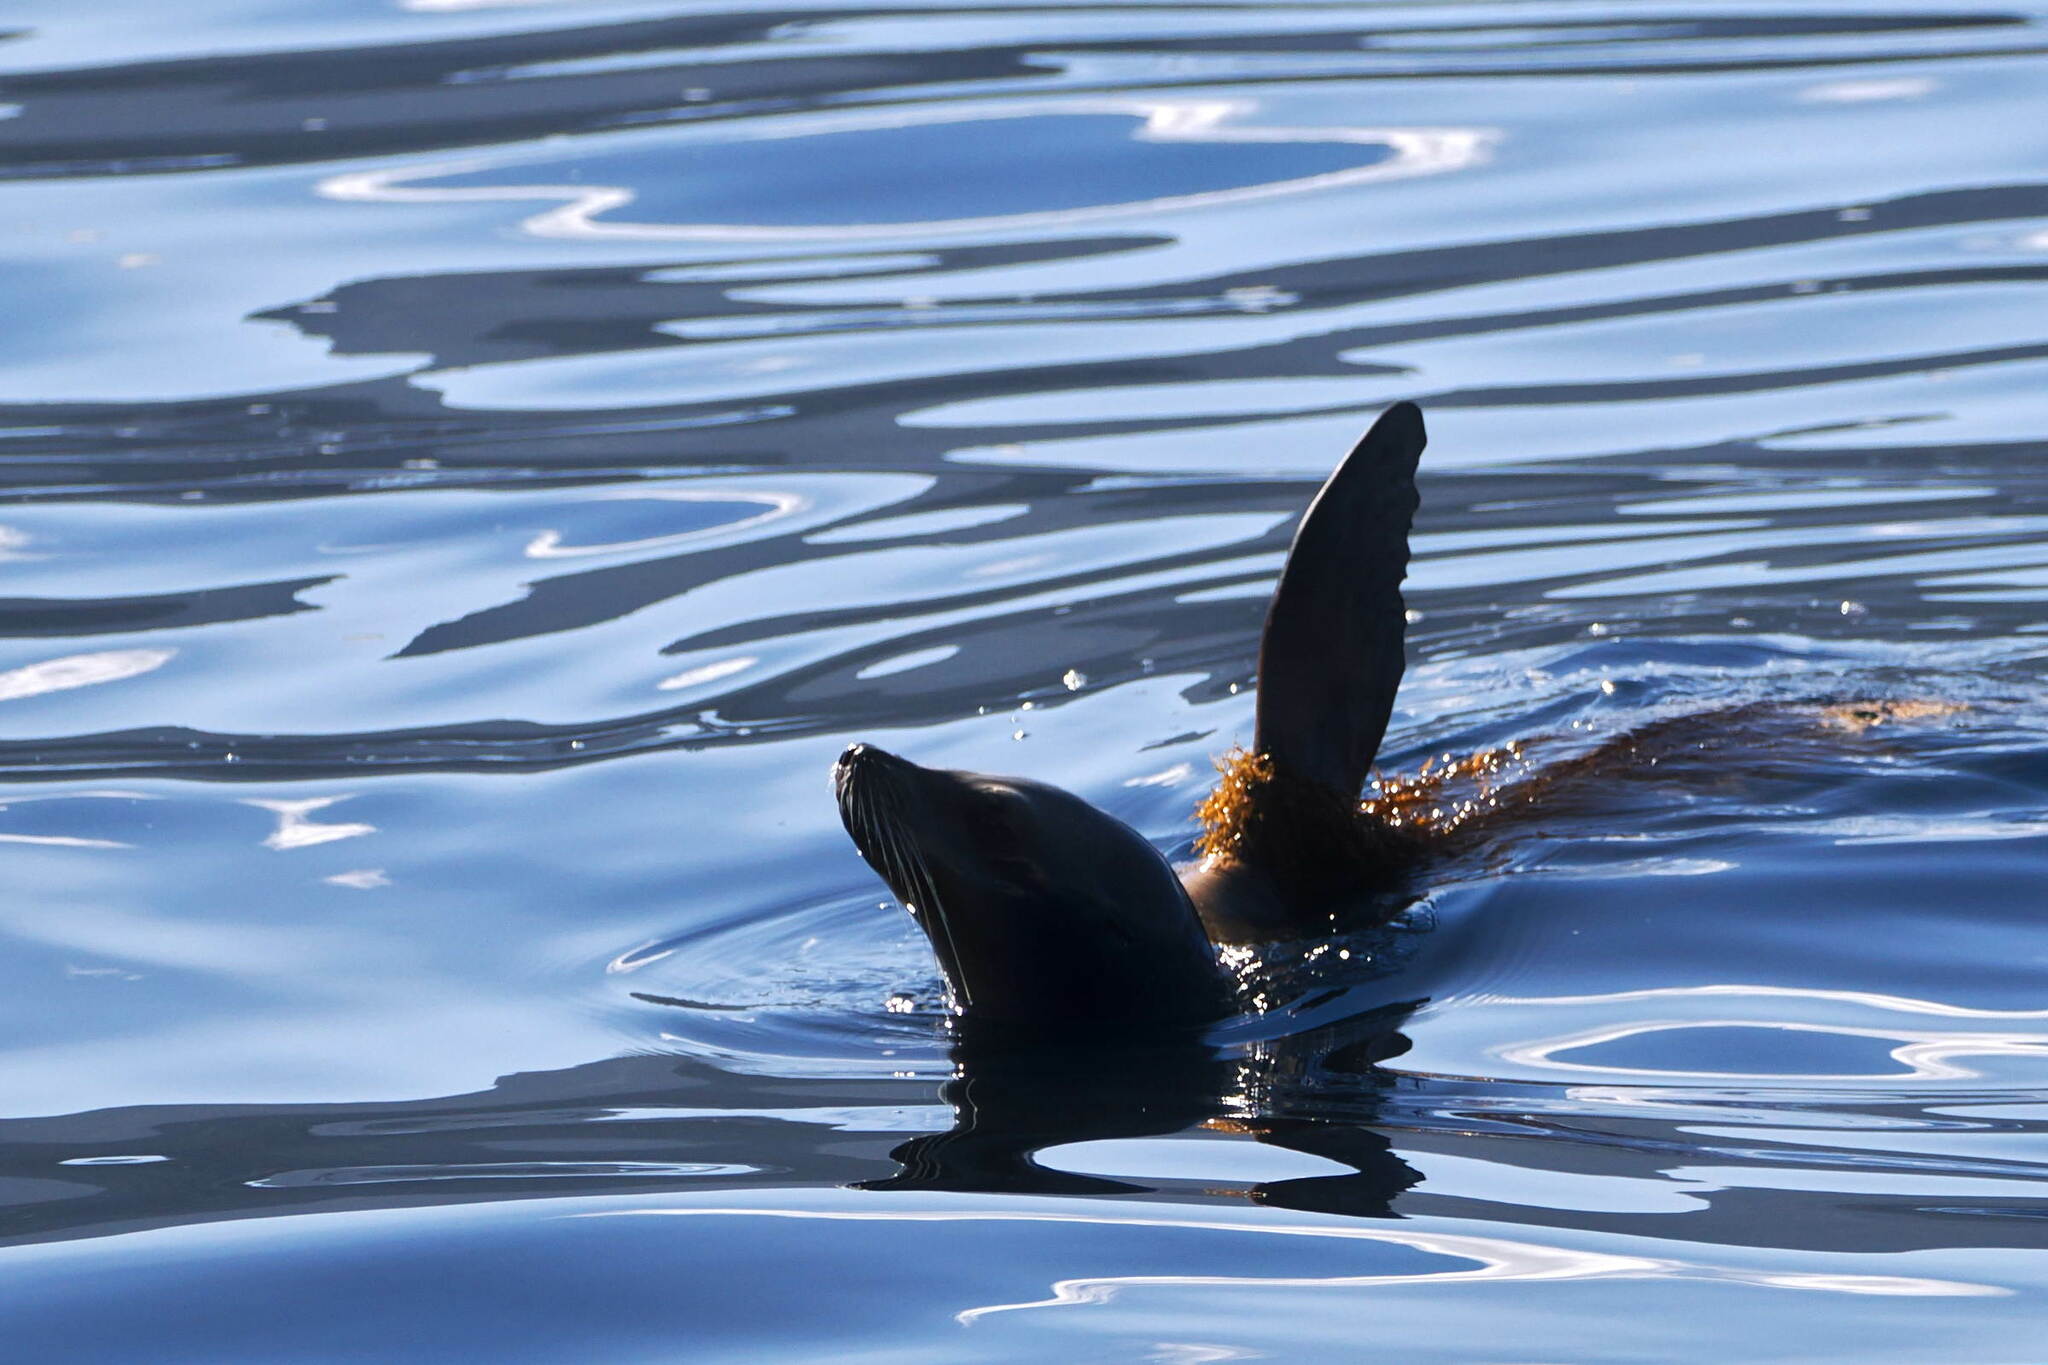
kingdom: Animalia
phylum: Chordata
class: Mammalia
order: Carnivora
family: Otariidae
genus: Zalophus
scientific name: Zalophus californianus
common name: California sea lion
